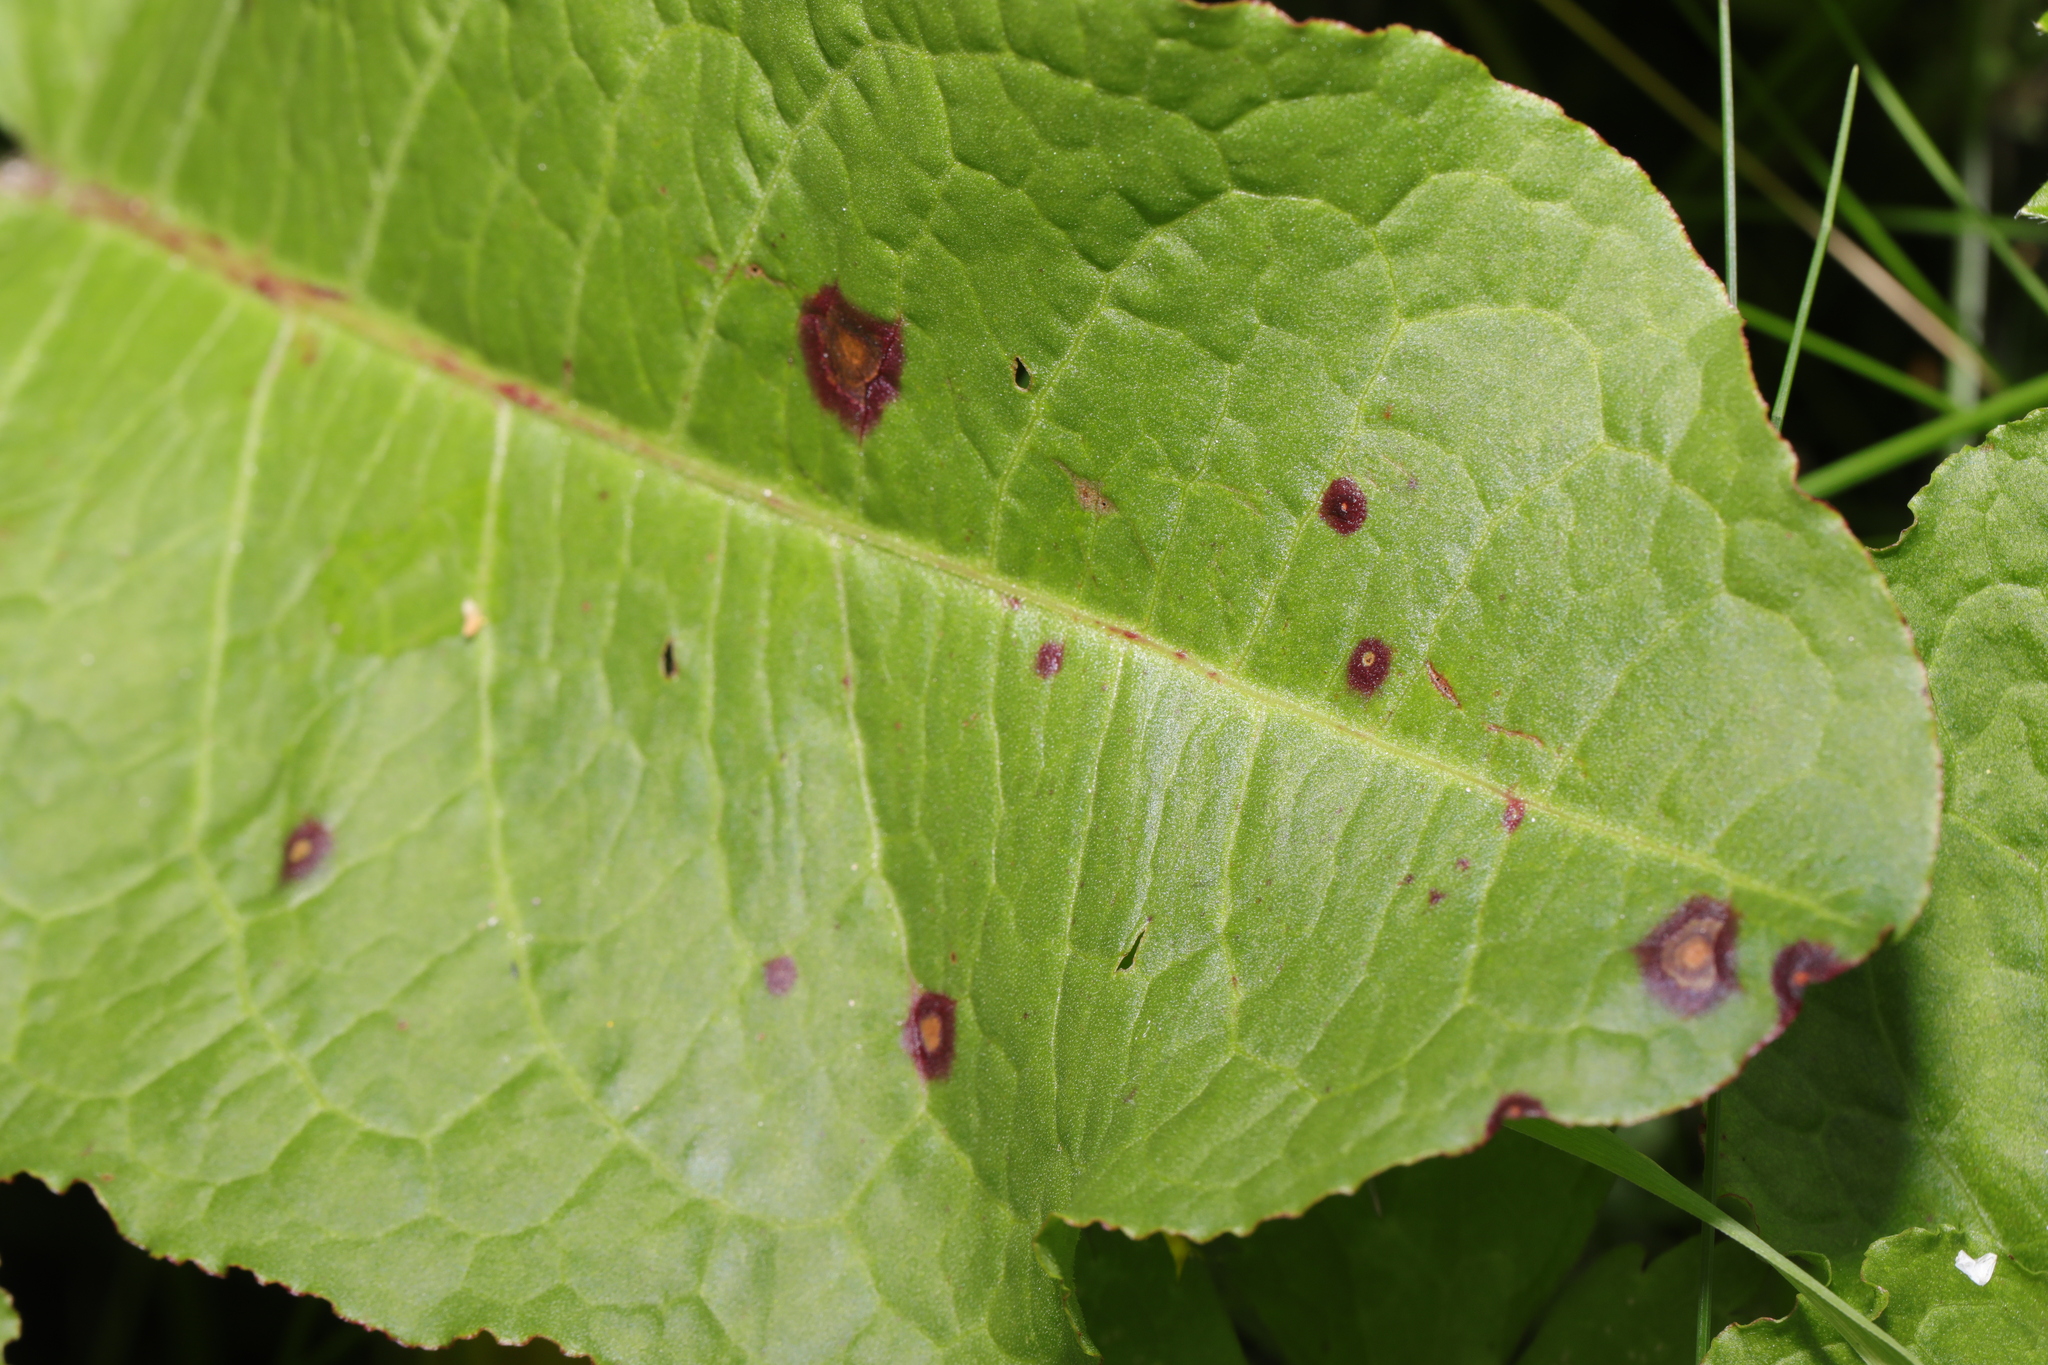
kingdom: Fungi
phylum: Ascomycota
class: Dothideomycetes
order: Mycosphaerellales
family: Mycosphaerellaceae
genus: Ramularia
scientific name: Ramularia rubella
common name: Red dock spot
